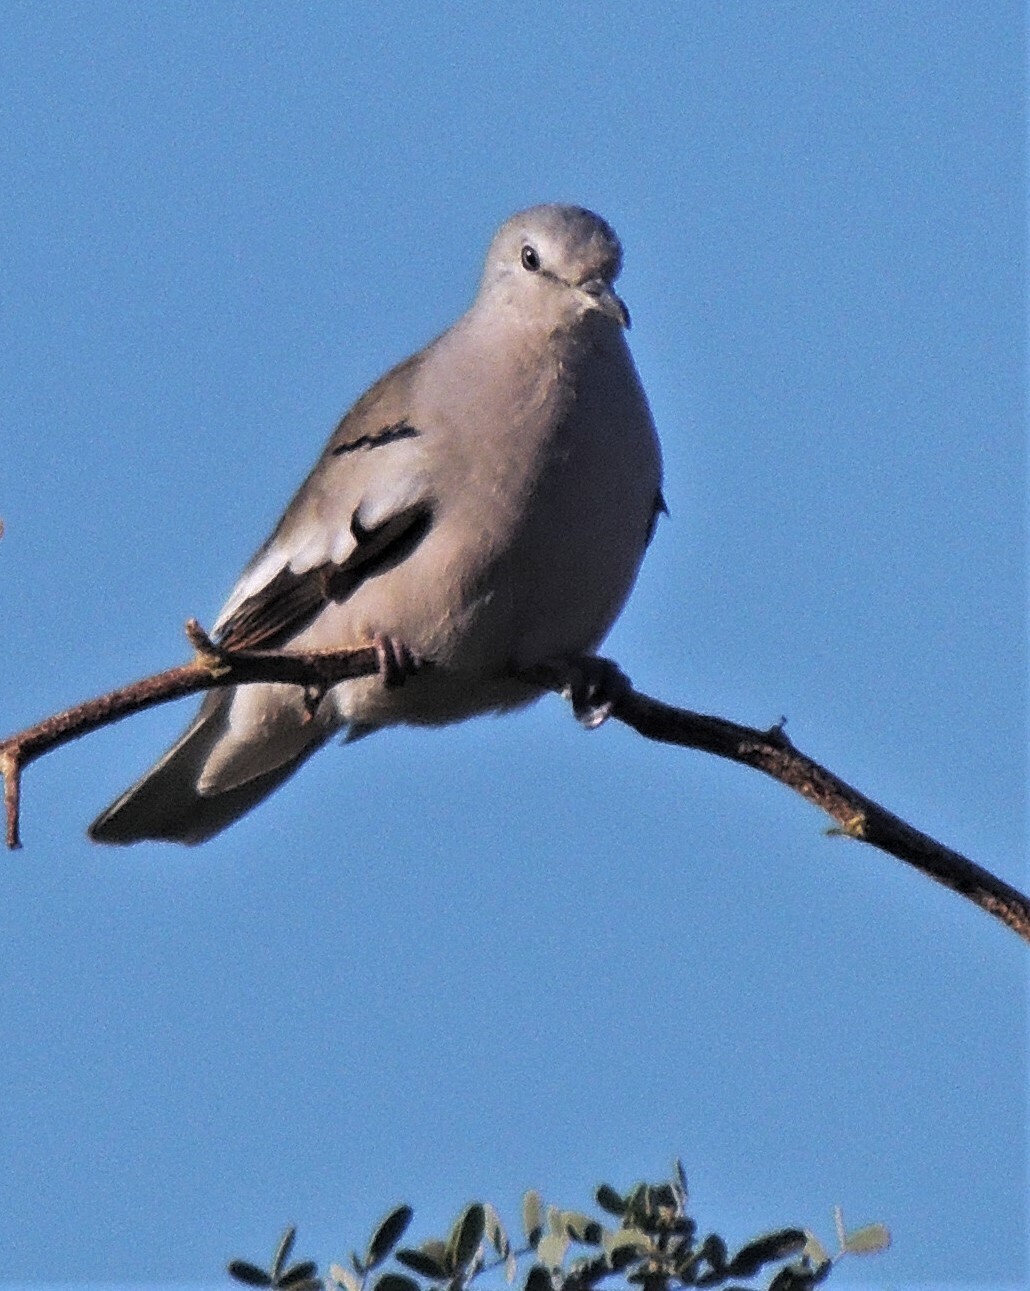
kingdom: Animalia
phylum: Chordata
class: Aves
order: Columbiformes
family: Columbidae
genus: Columbina
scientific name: Columbina picui
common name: Picui ground dove
